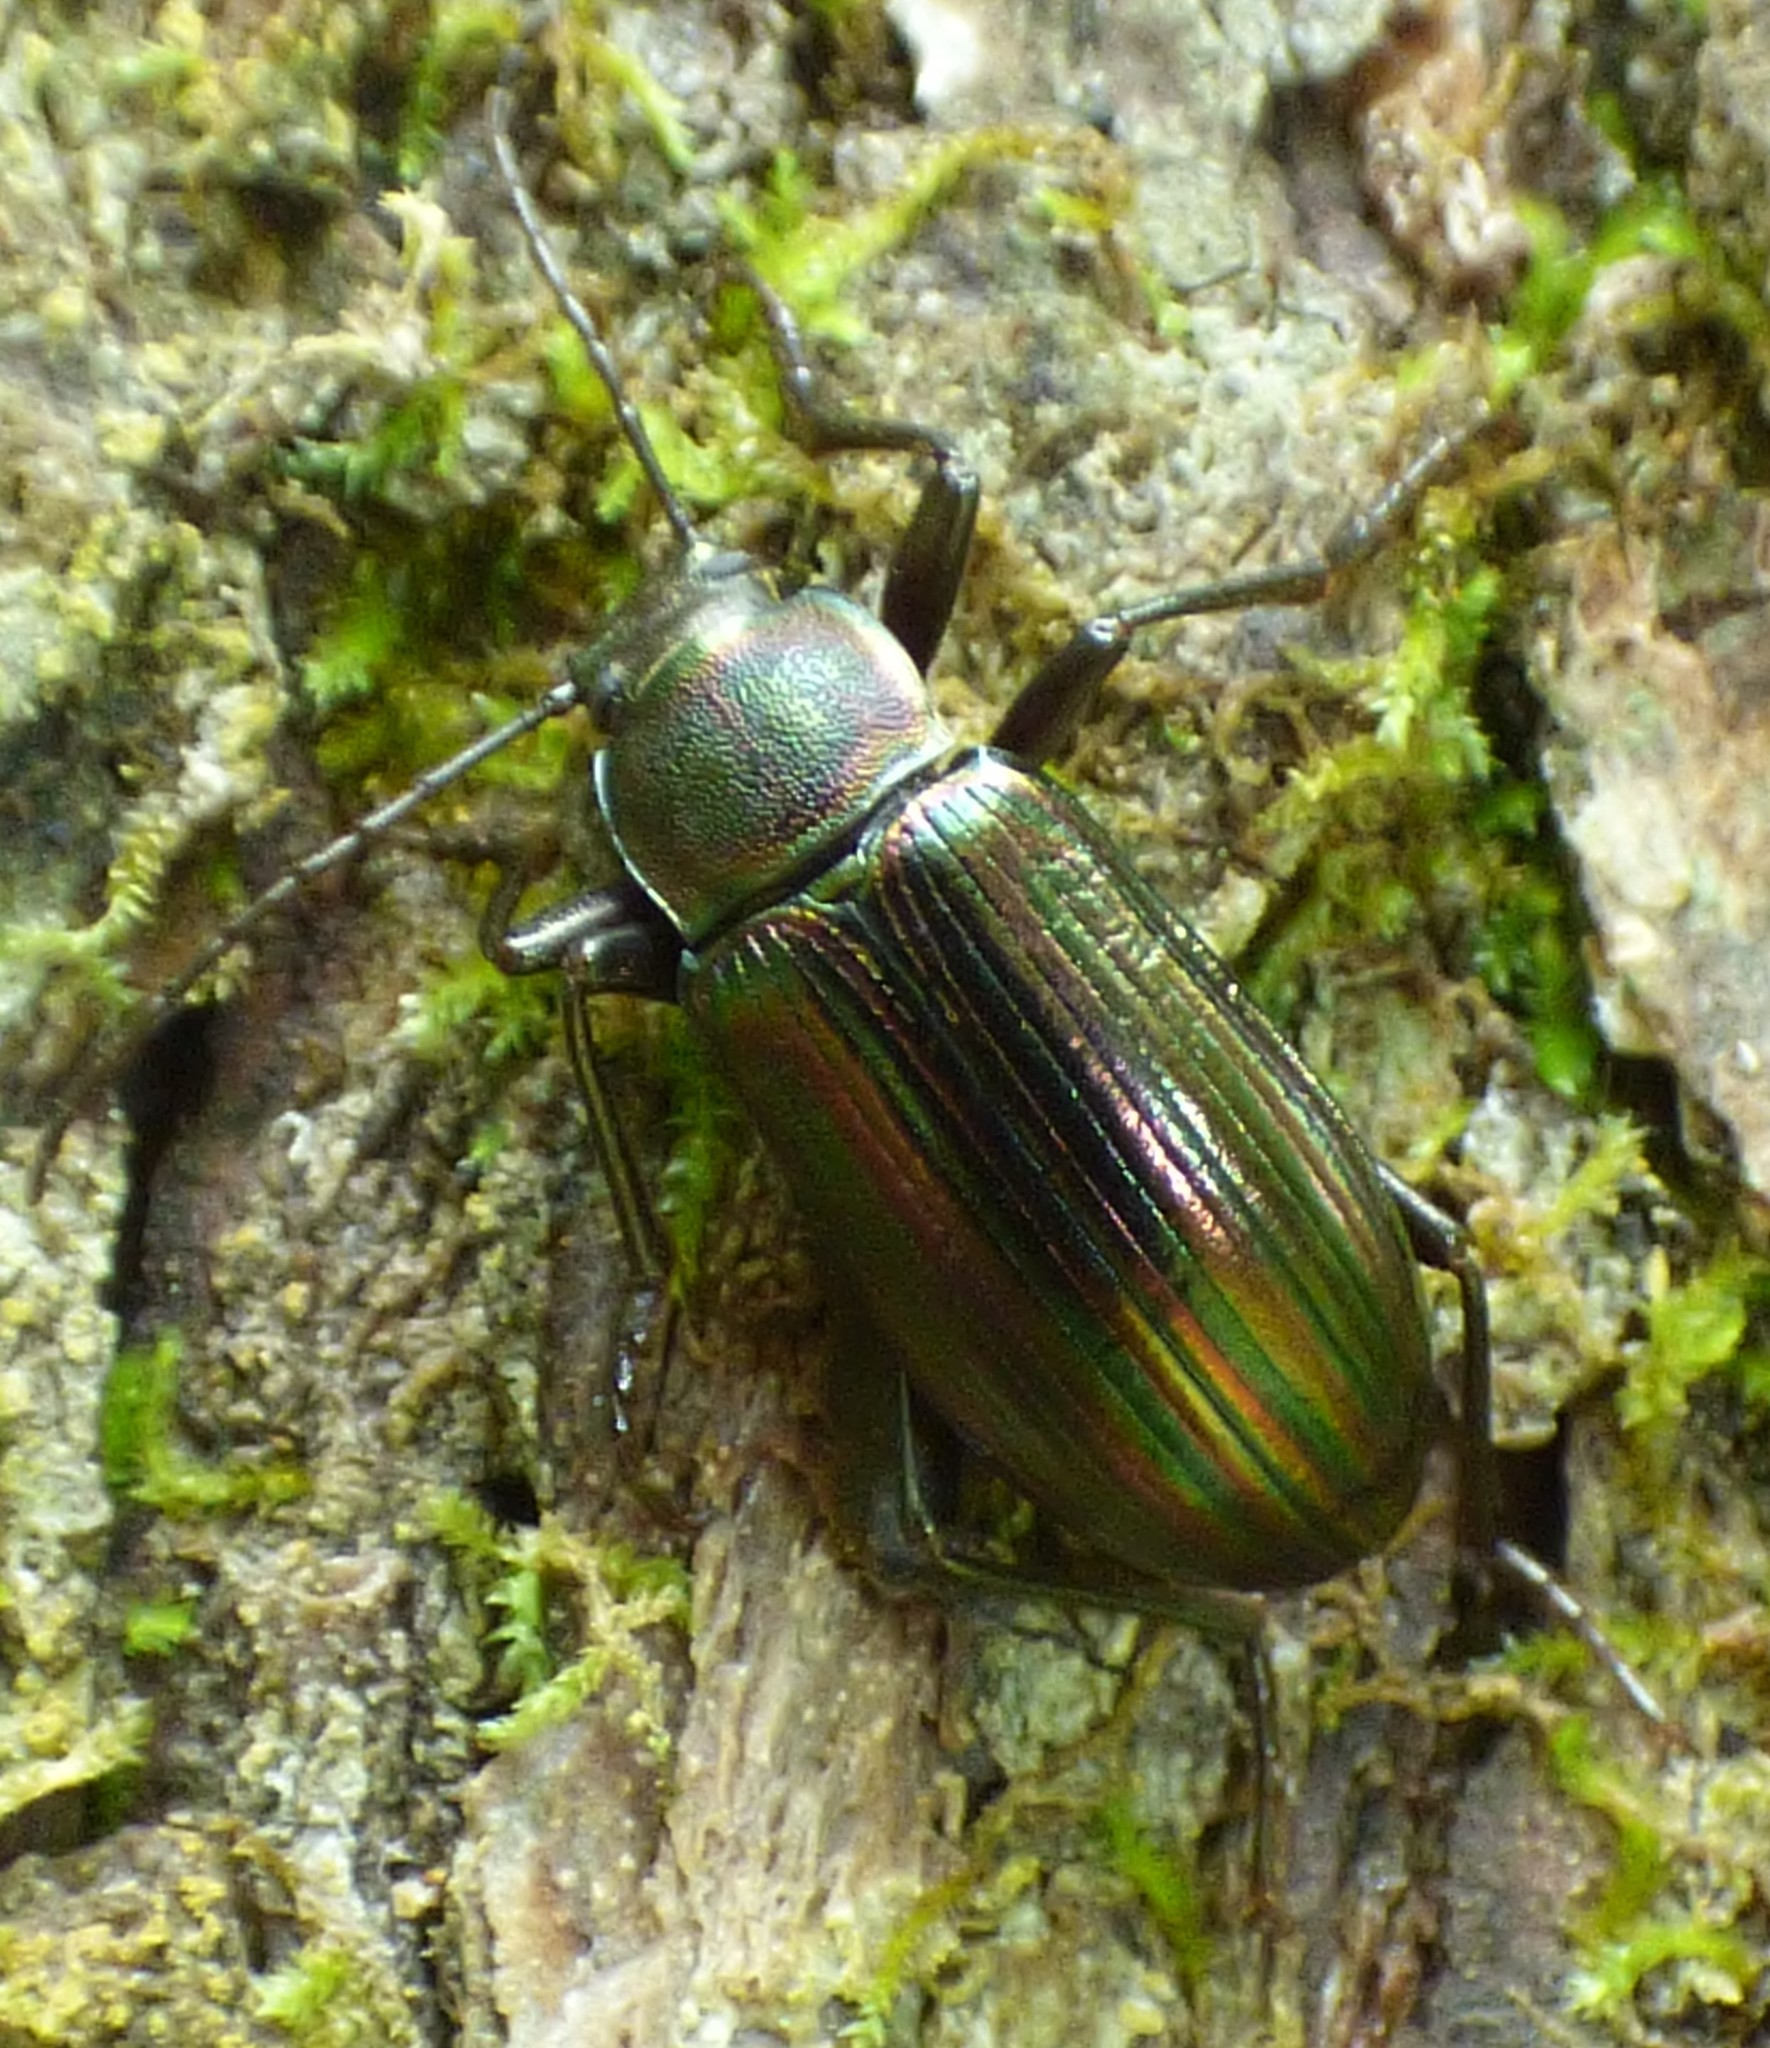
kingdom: Animalia
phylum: Arthropoda
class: Insecta
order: Coleoptera
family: Tenebrionidae
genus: Tarpela
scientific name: Tarpela micans
